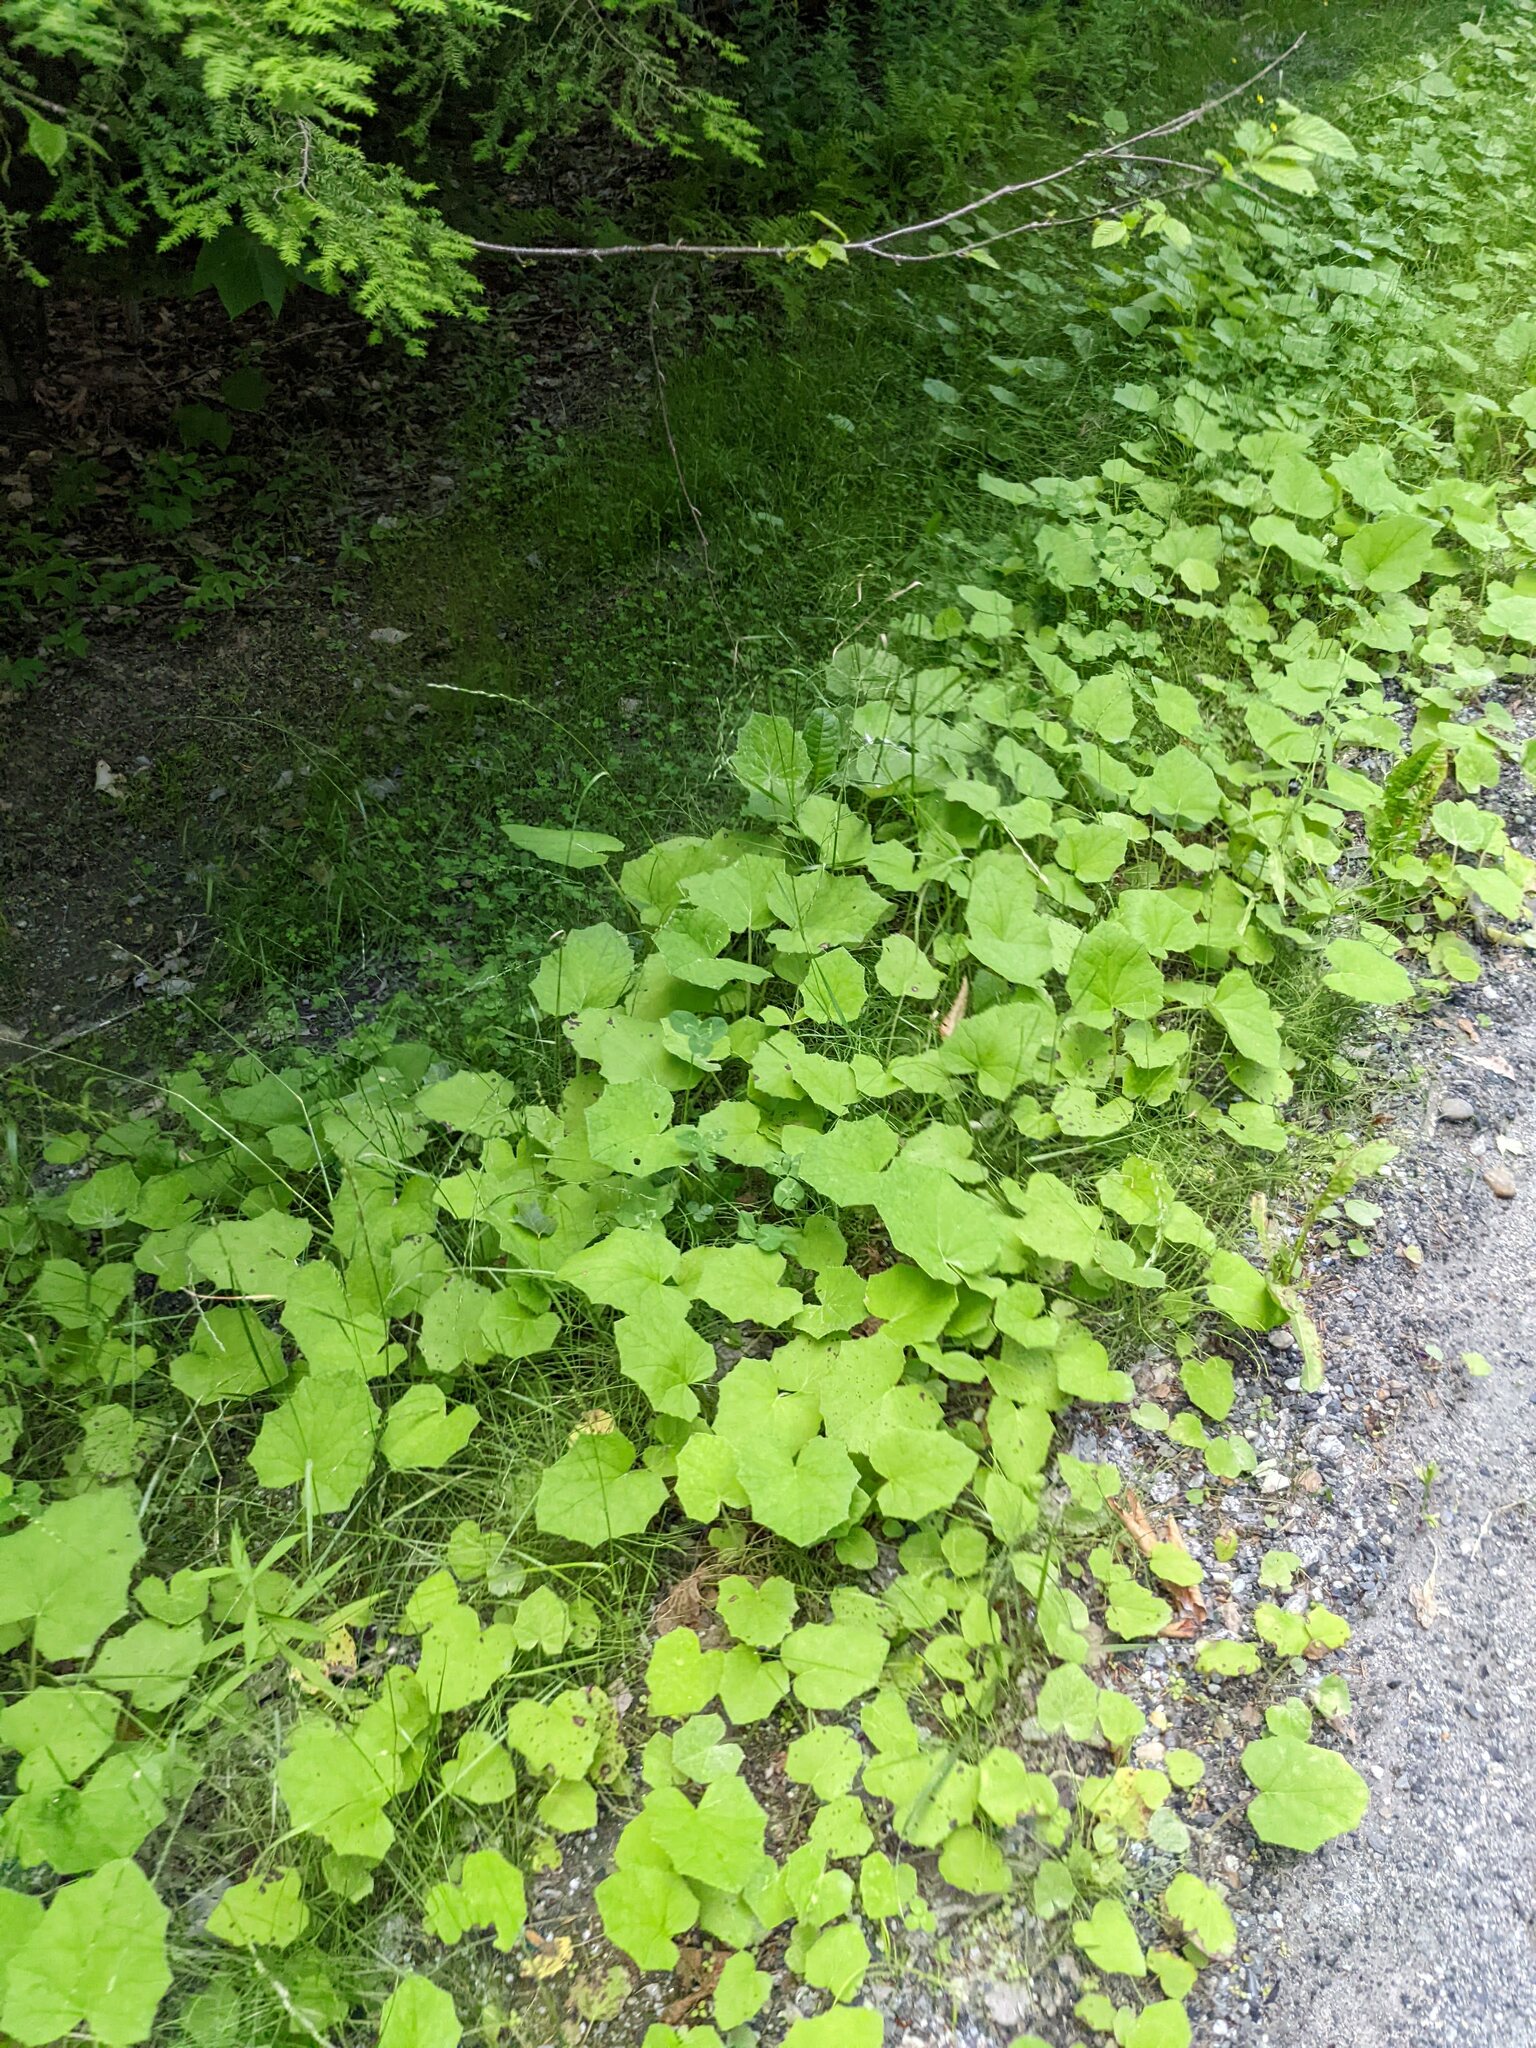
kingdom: Plantae
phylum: Tracheophyta
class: Magnoliopsida
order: Asterales
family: Asteraceae
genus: Tussilago
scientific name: Tussilago farfara
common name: Coltsfoot
